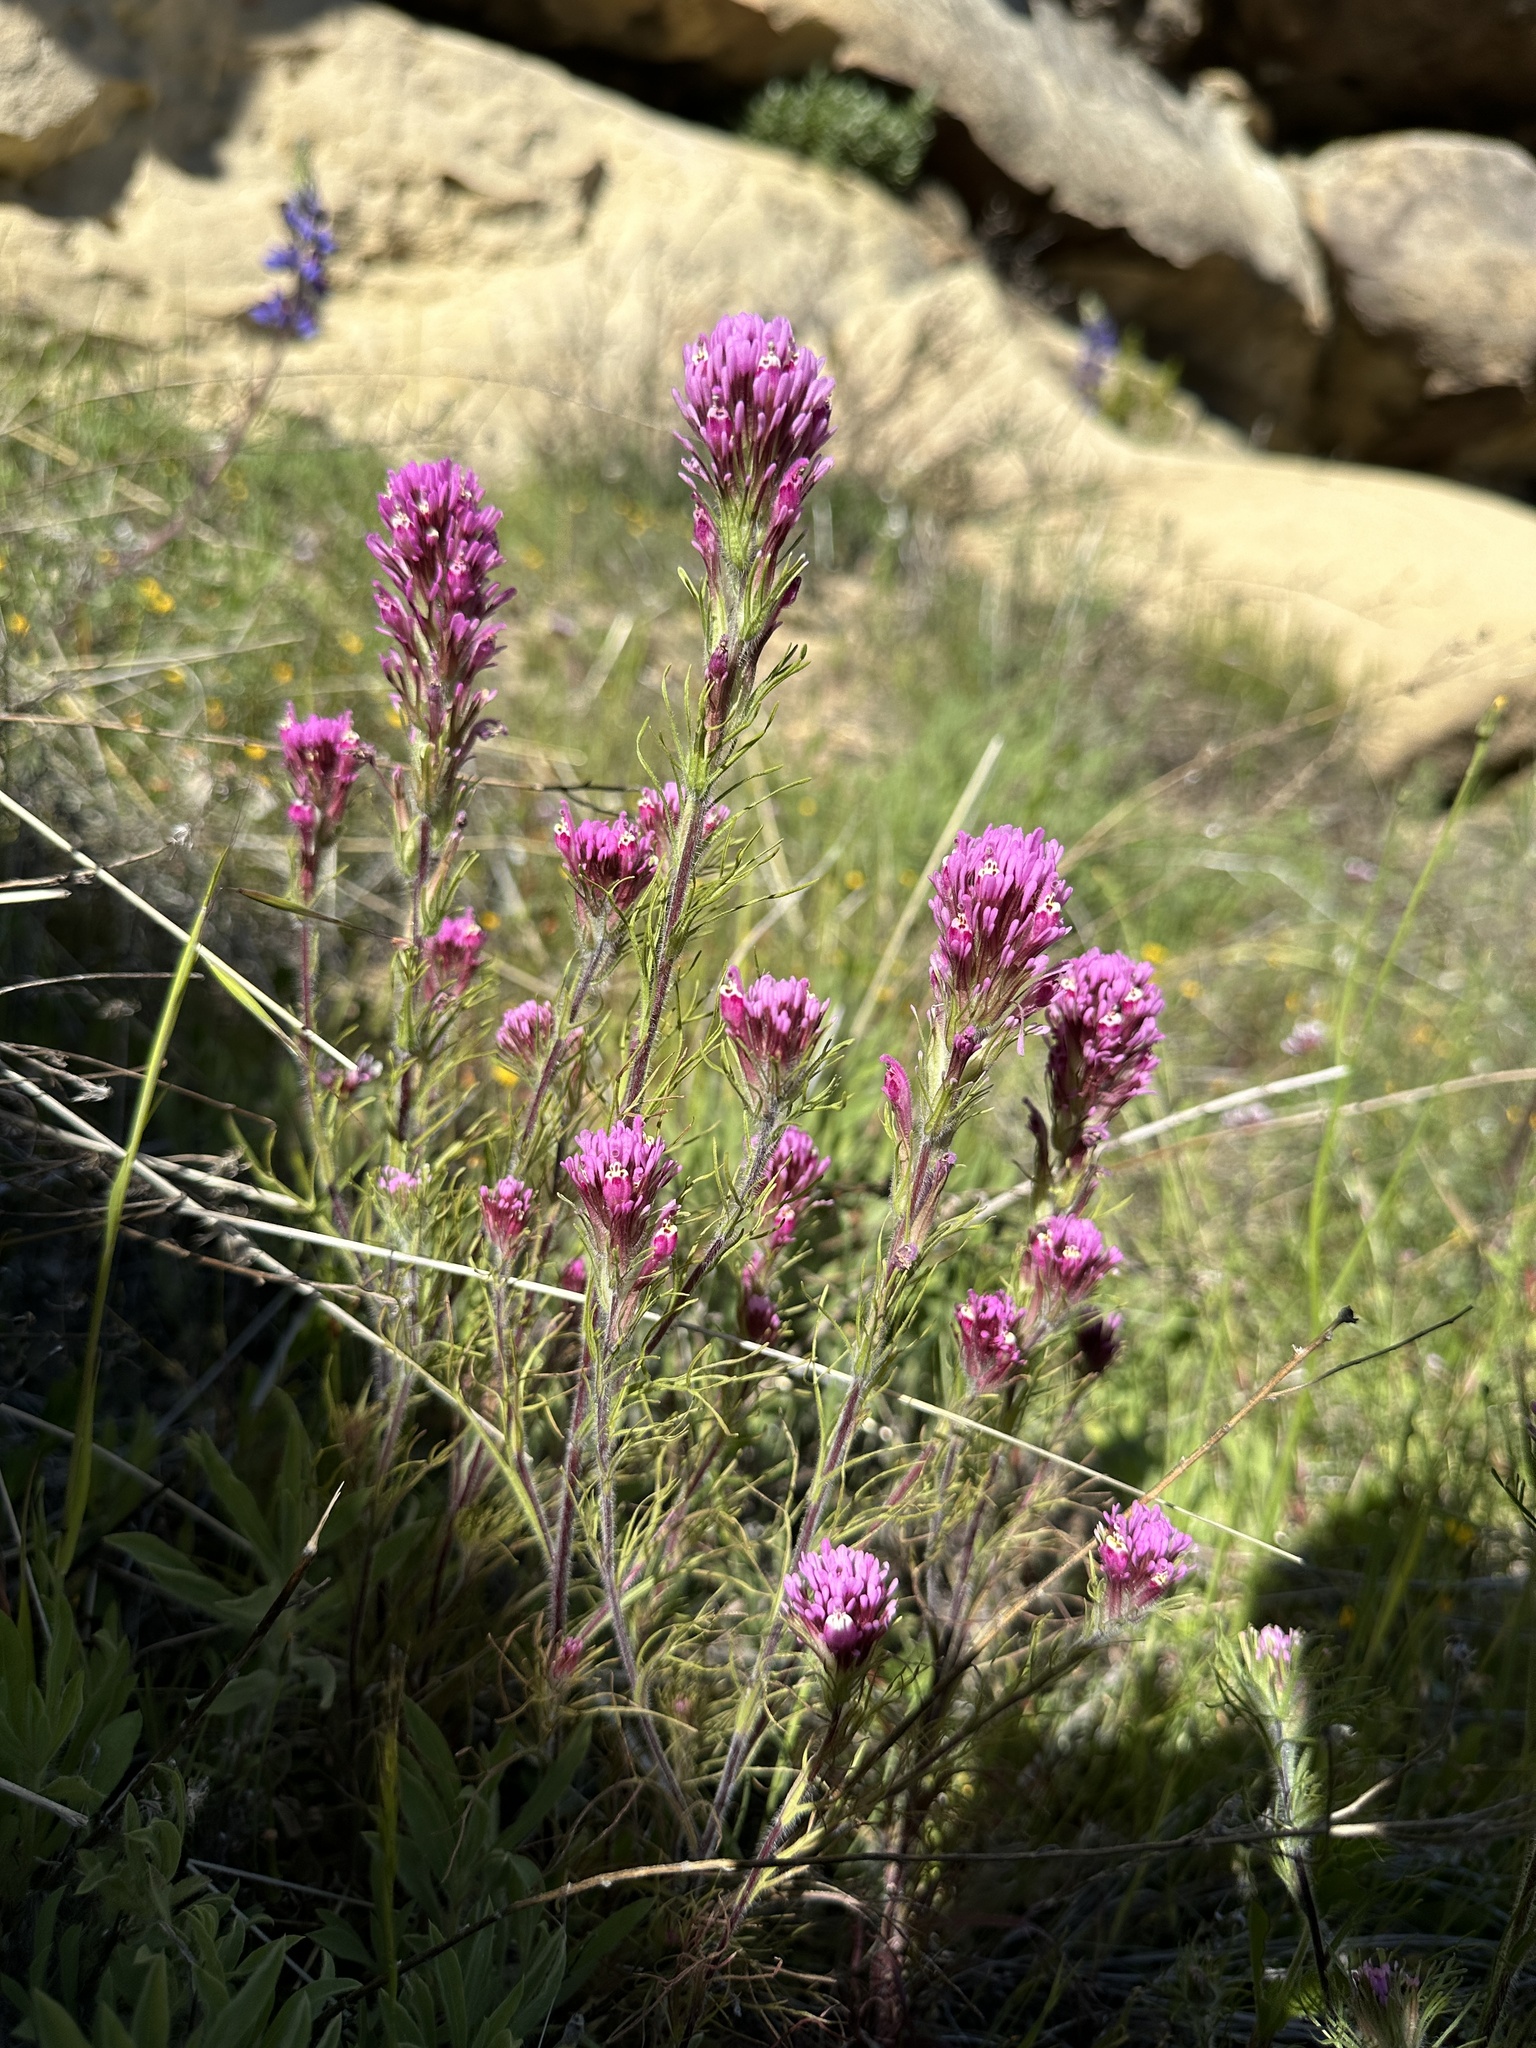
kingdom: Plantae
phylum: Tracheophyta
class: Magnoliopsida
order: Lamiales
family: Orobanchaceae
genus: Castilleja
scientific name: Castilleja exserta
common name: Purple owl-clover
